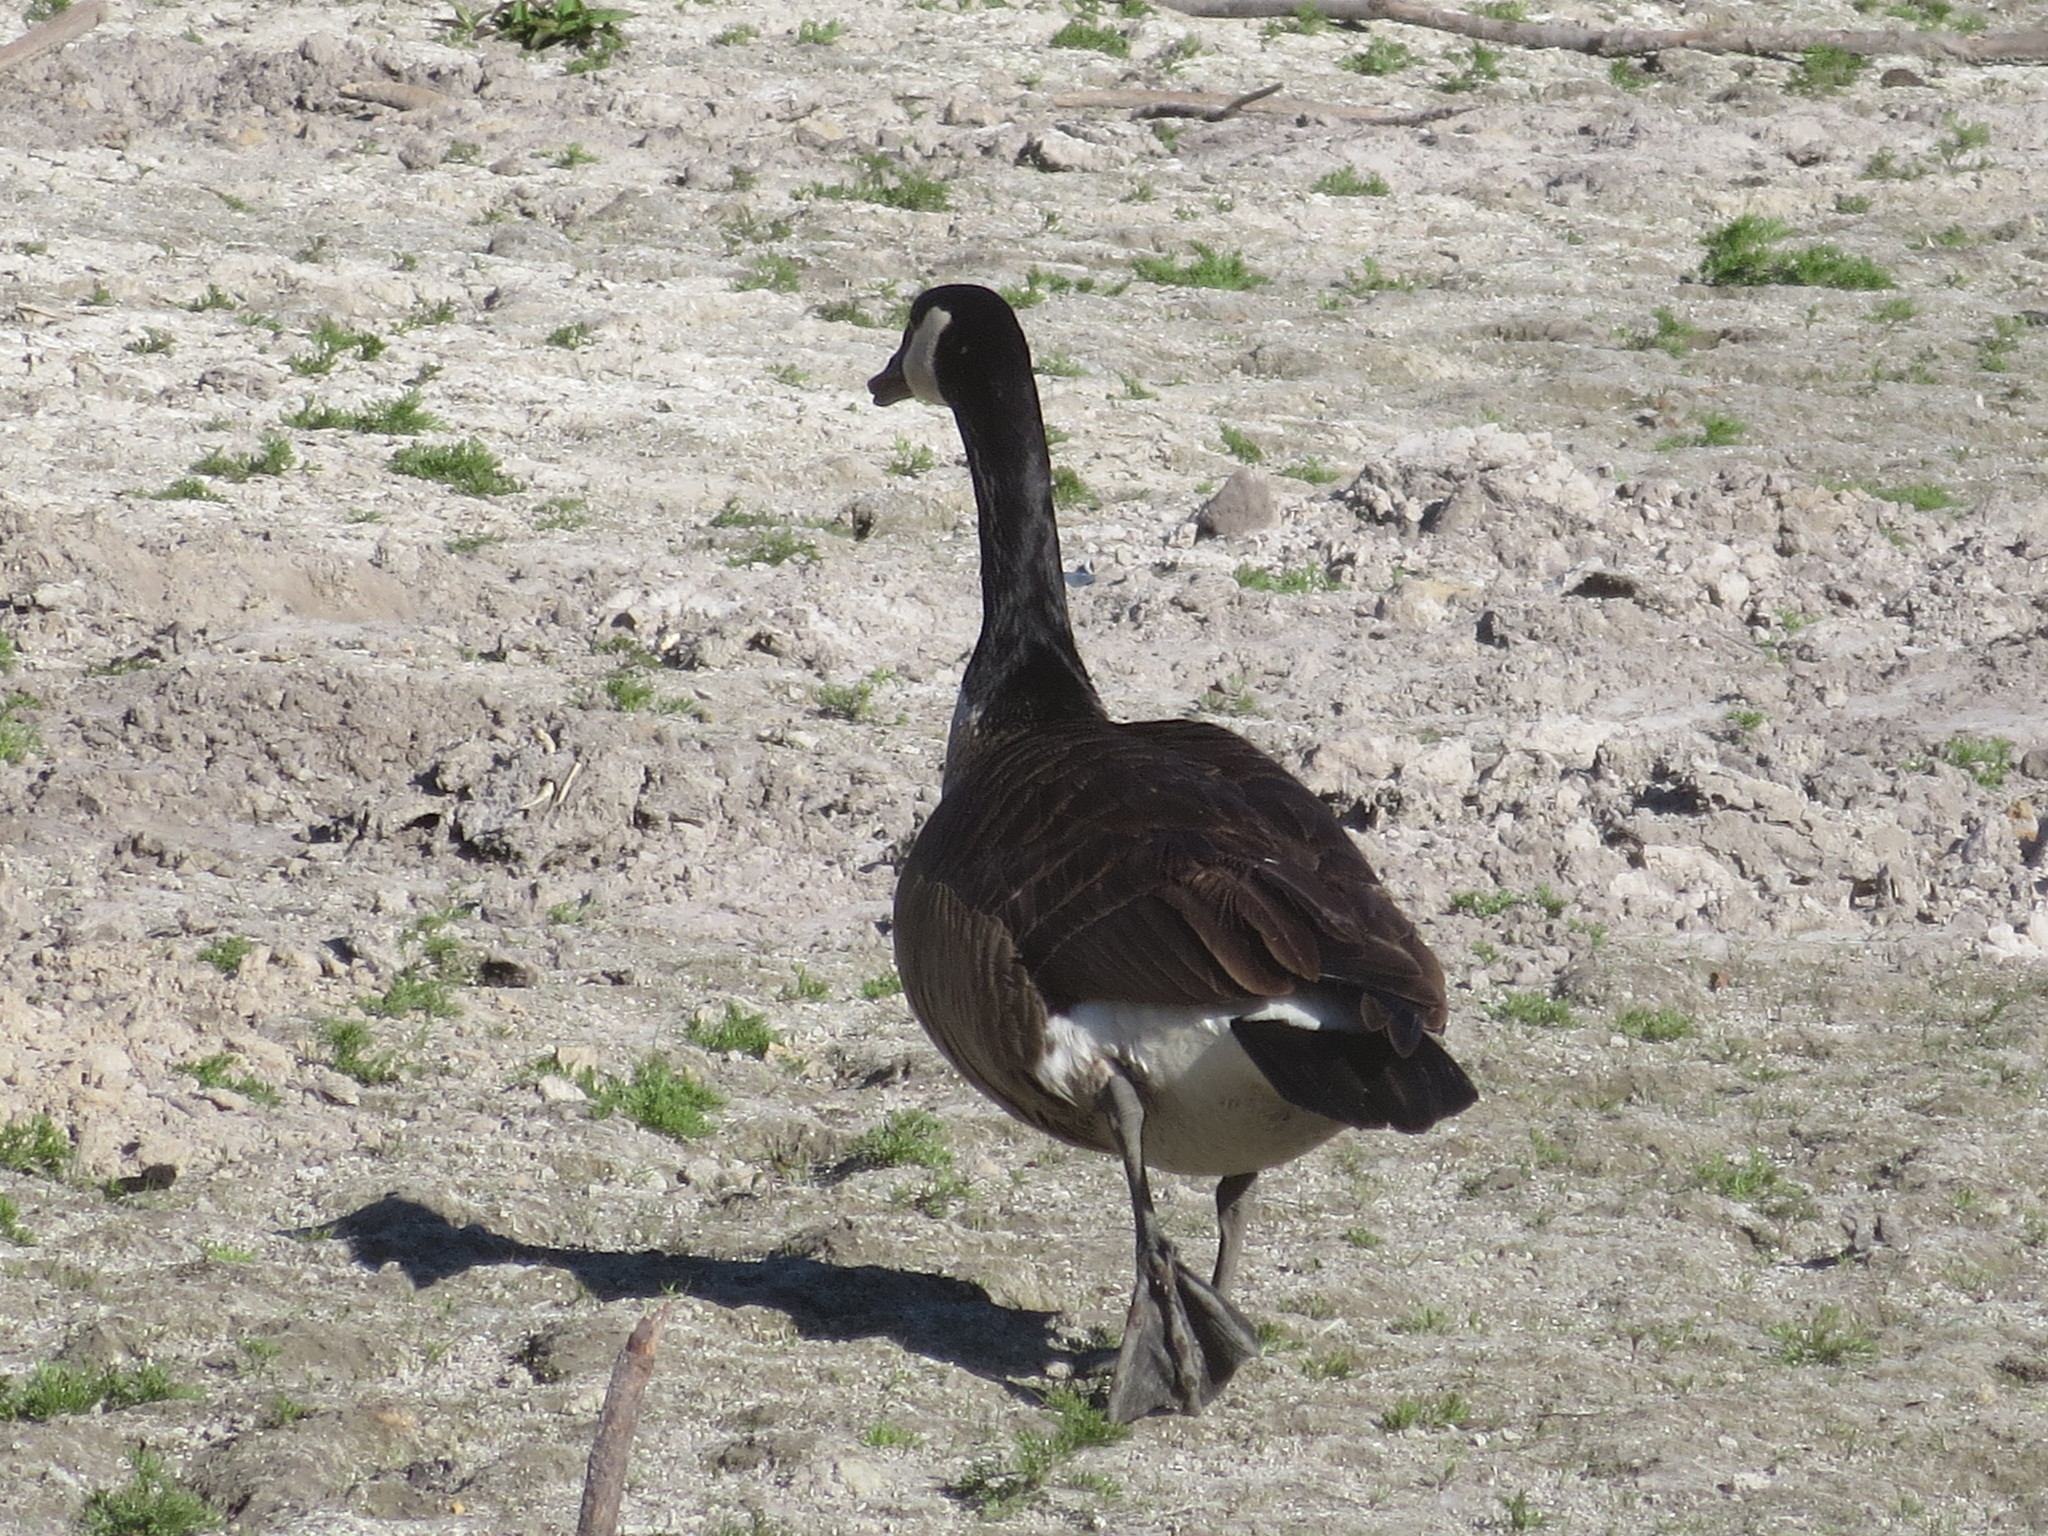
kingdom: Animalia
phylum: Chordata
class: Aves
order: Anseriformes
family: Anatidae
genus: Branta
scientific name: Branta canadensis
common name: Canada goose
